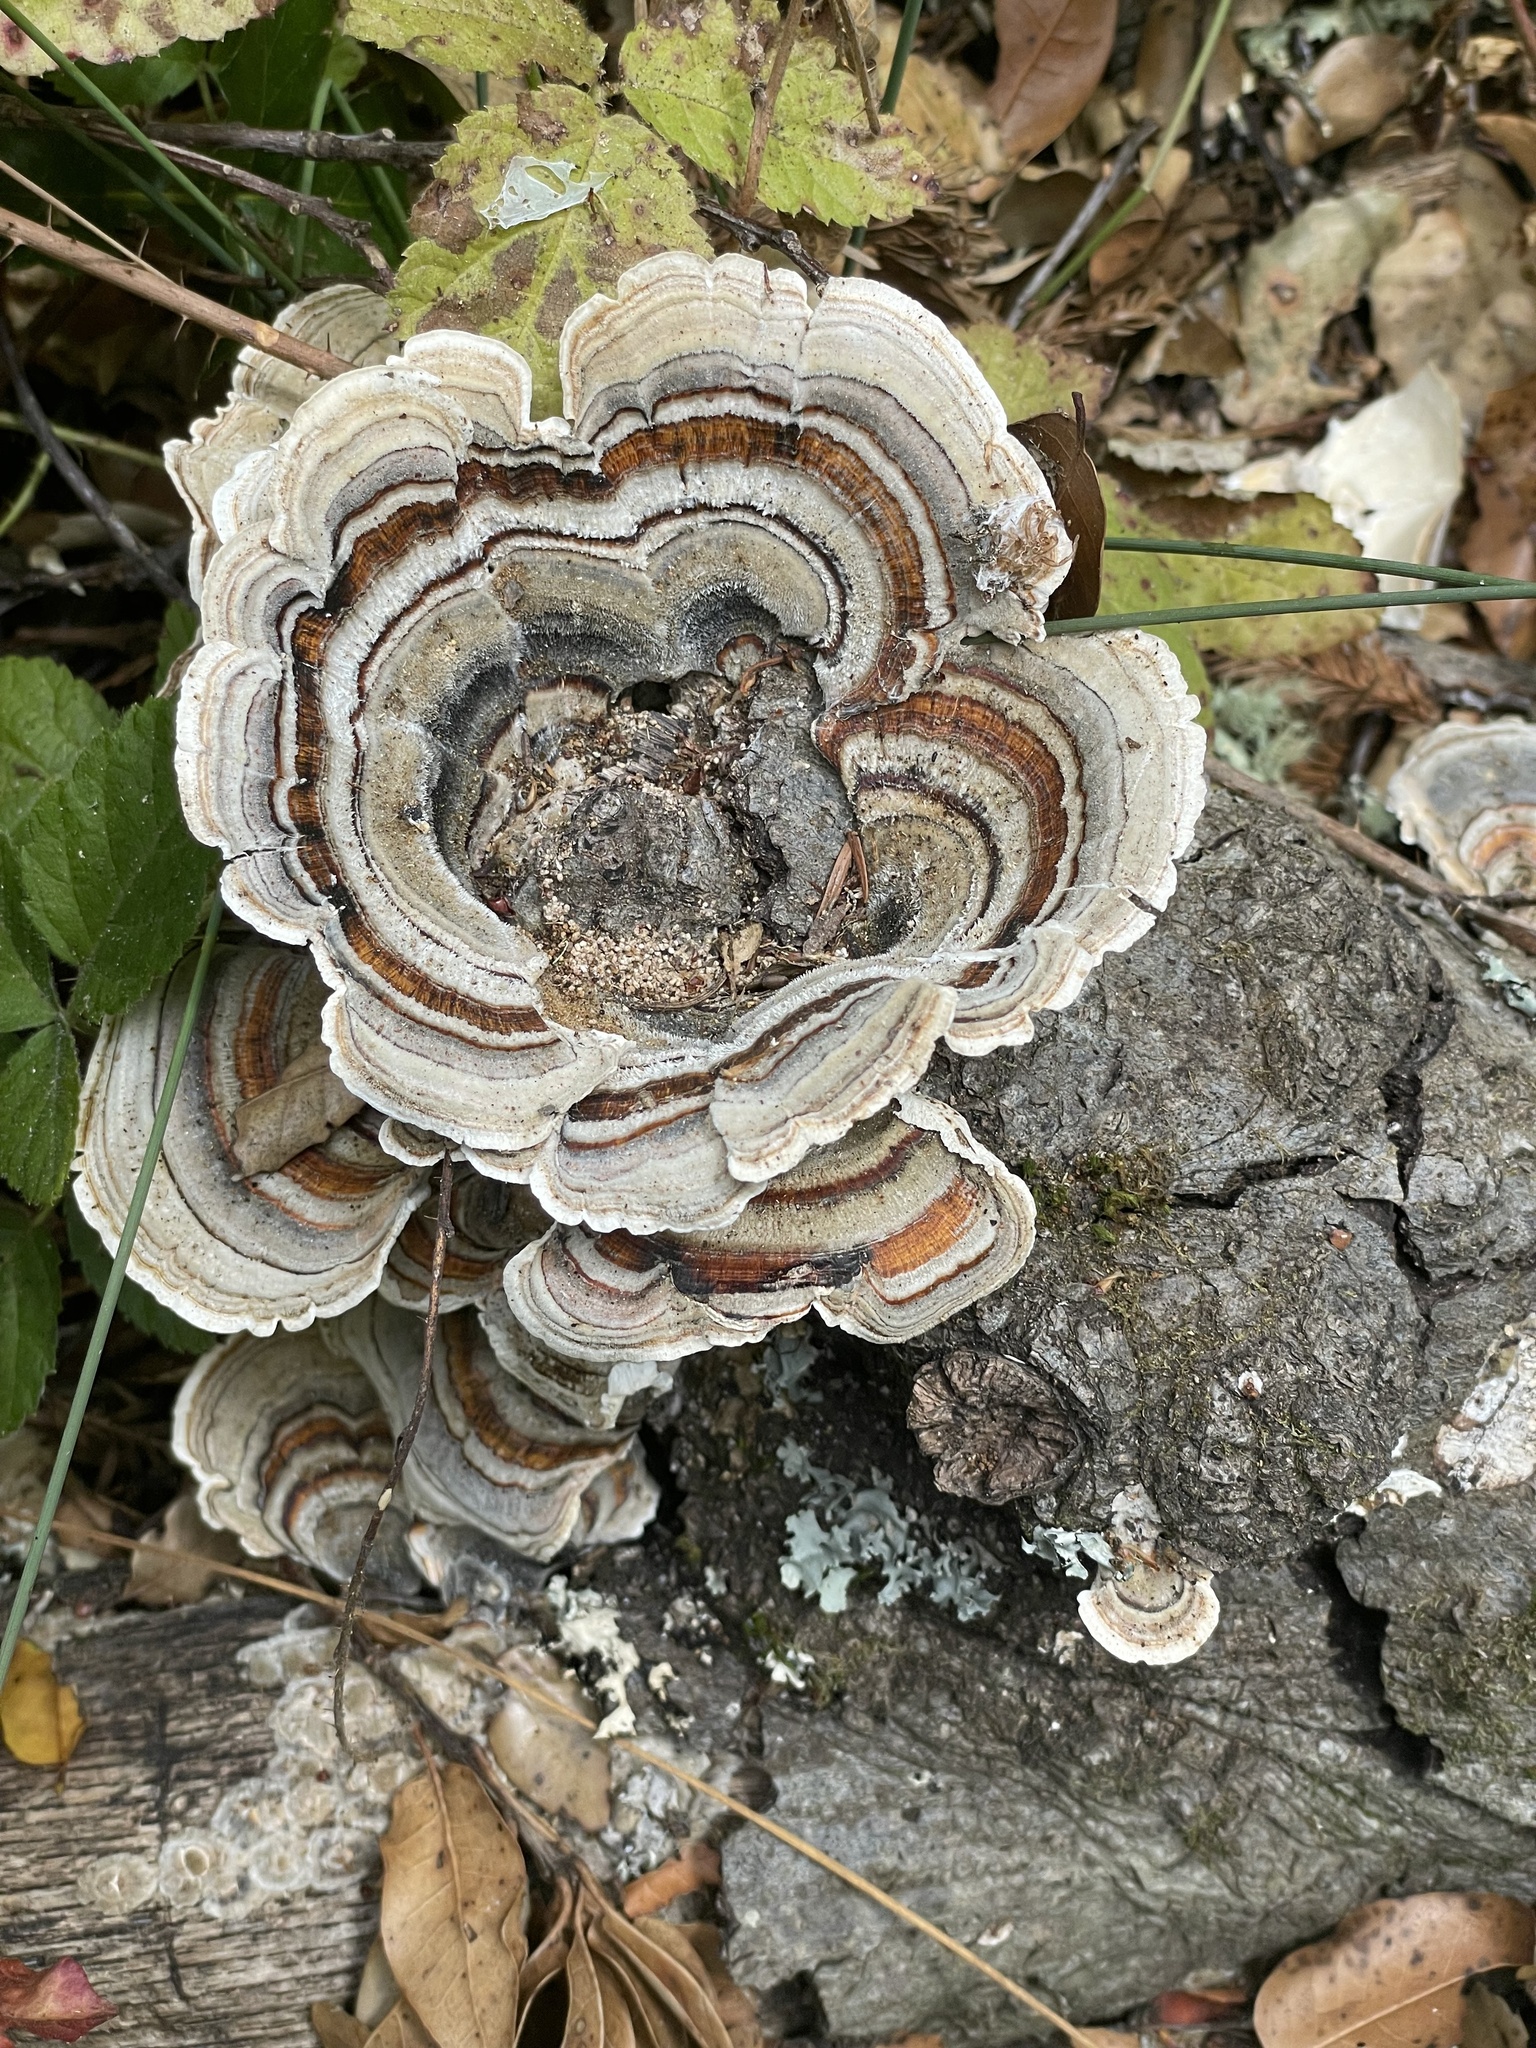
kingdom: Fungi
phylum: Basidiomycota
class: Agaricomycetes
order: Polyporales
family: Polyporaceae
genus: Trametes
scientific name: Trametes versicolor
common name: Turkeytail
